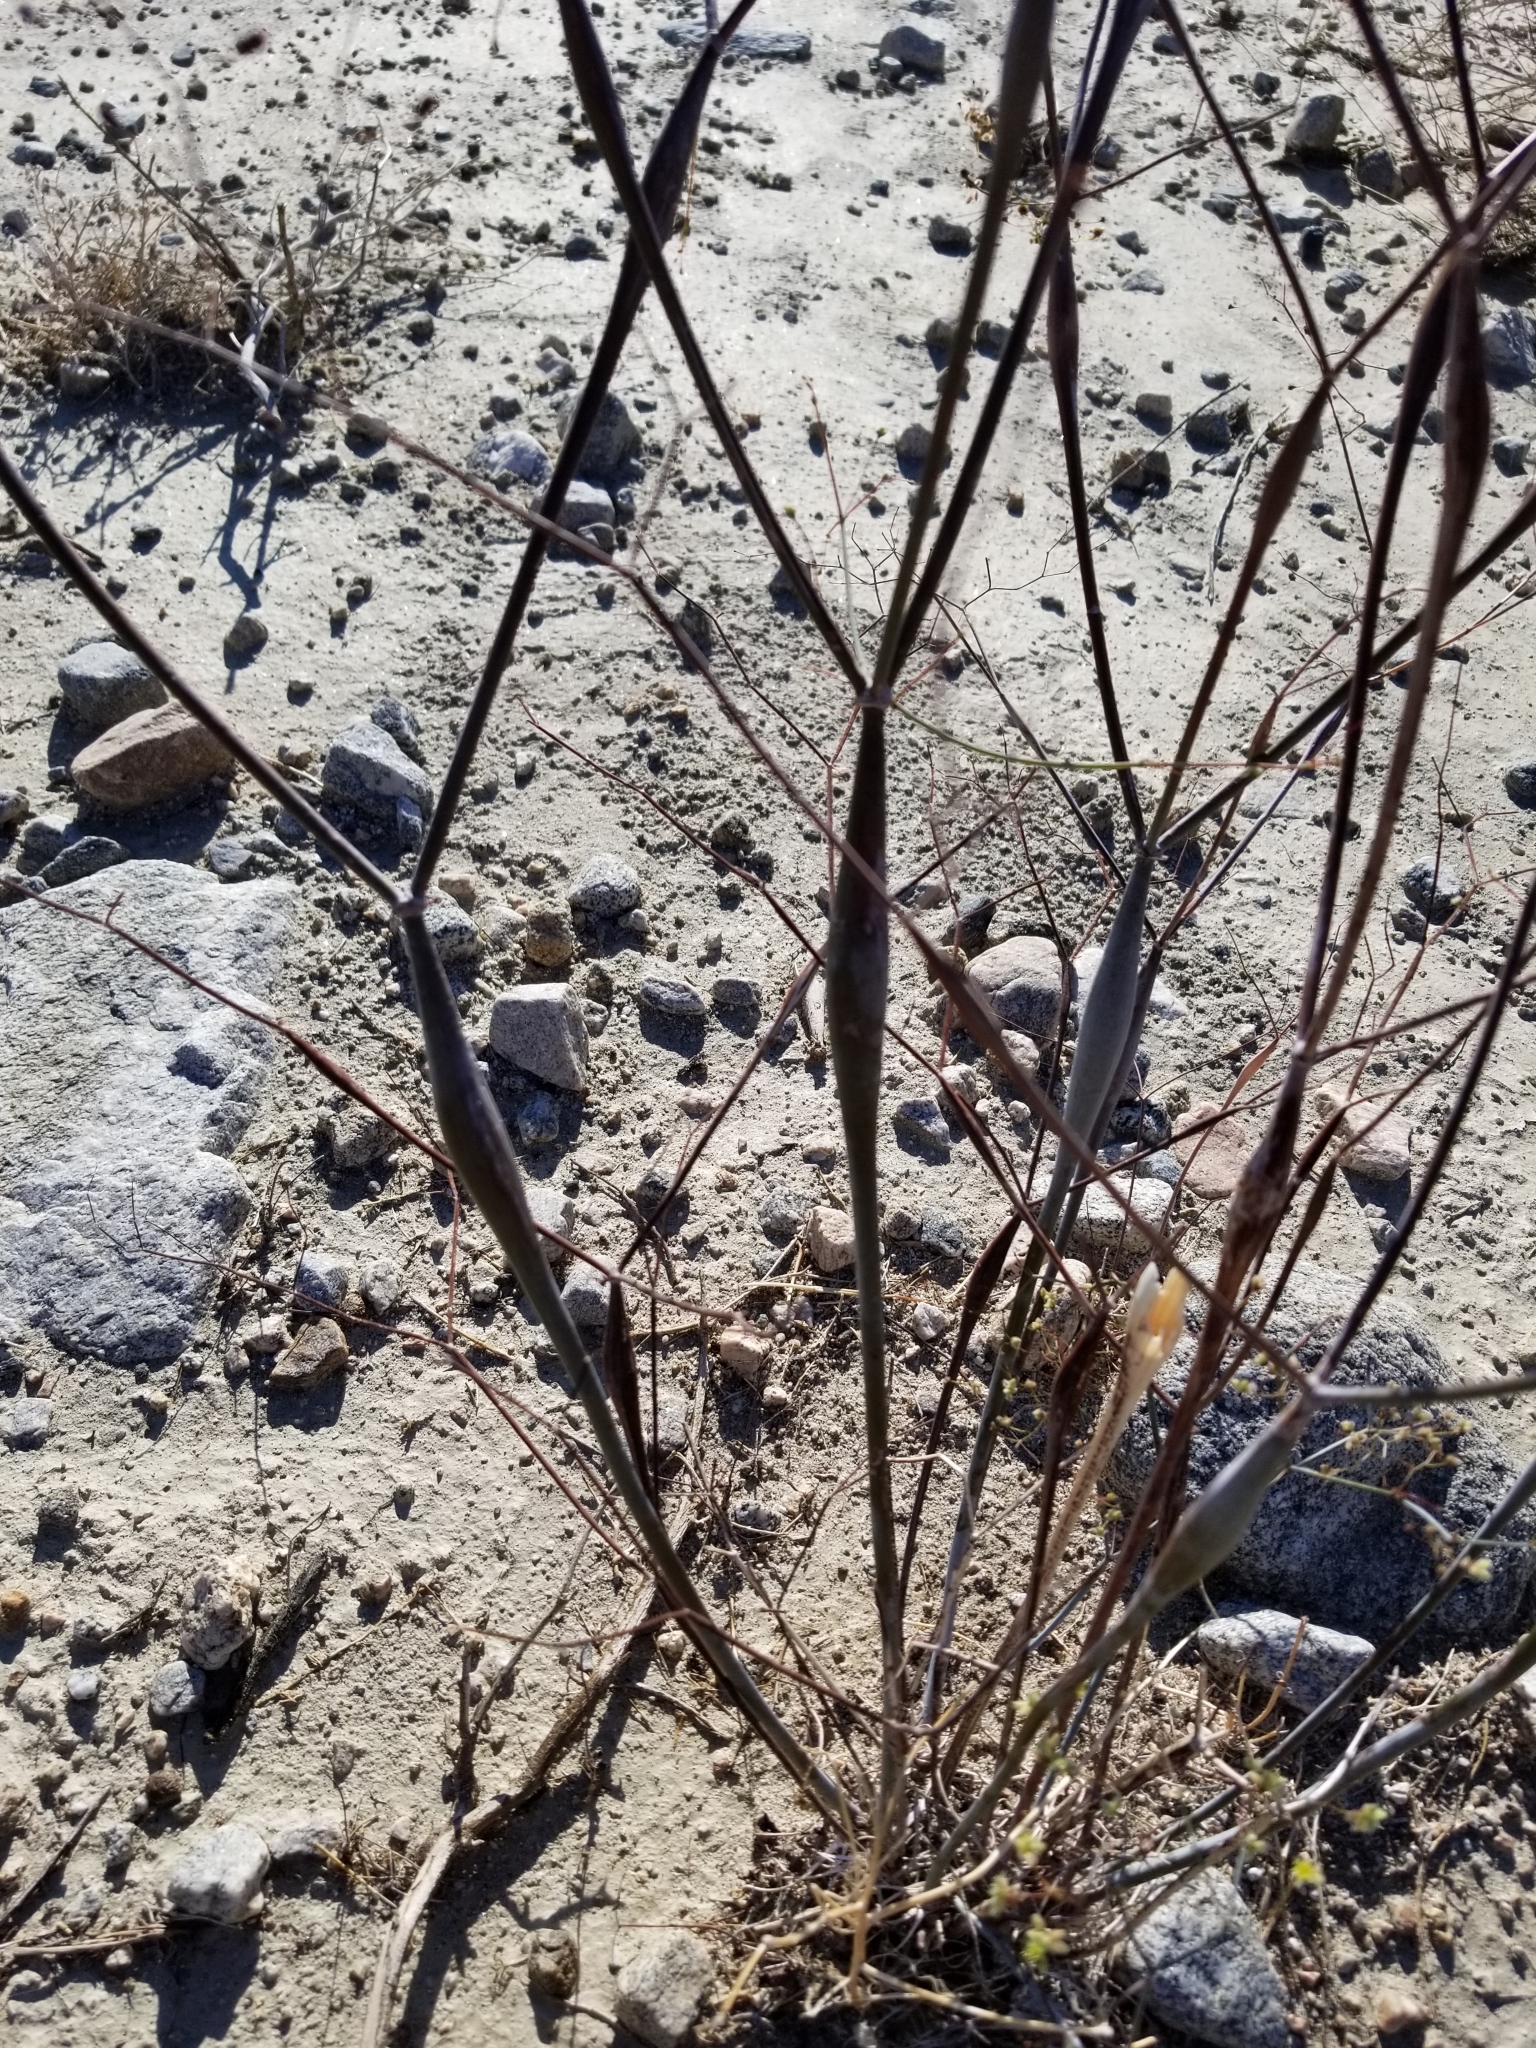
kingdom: Plantae
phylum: Tracheophyta
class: Magnoliopsida
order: Caryophyllales
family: Polygonaceae
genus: Eriogonum
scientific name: Eriogonum inflatum
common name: Desert trumpet
